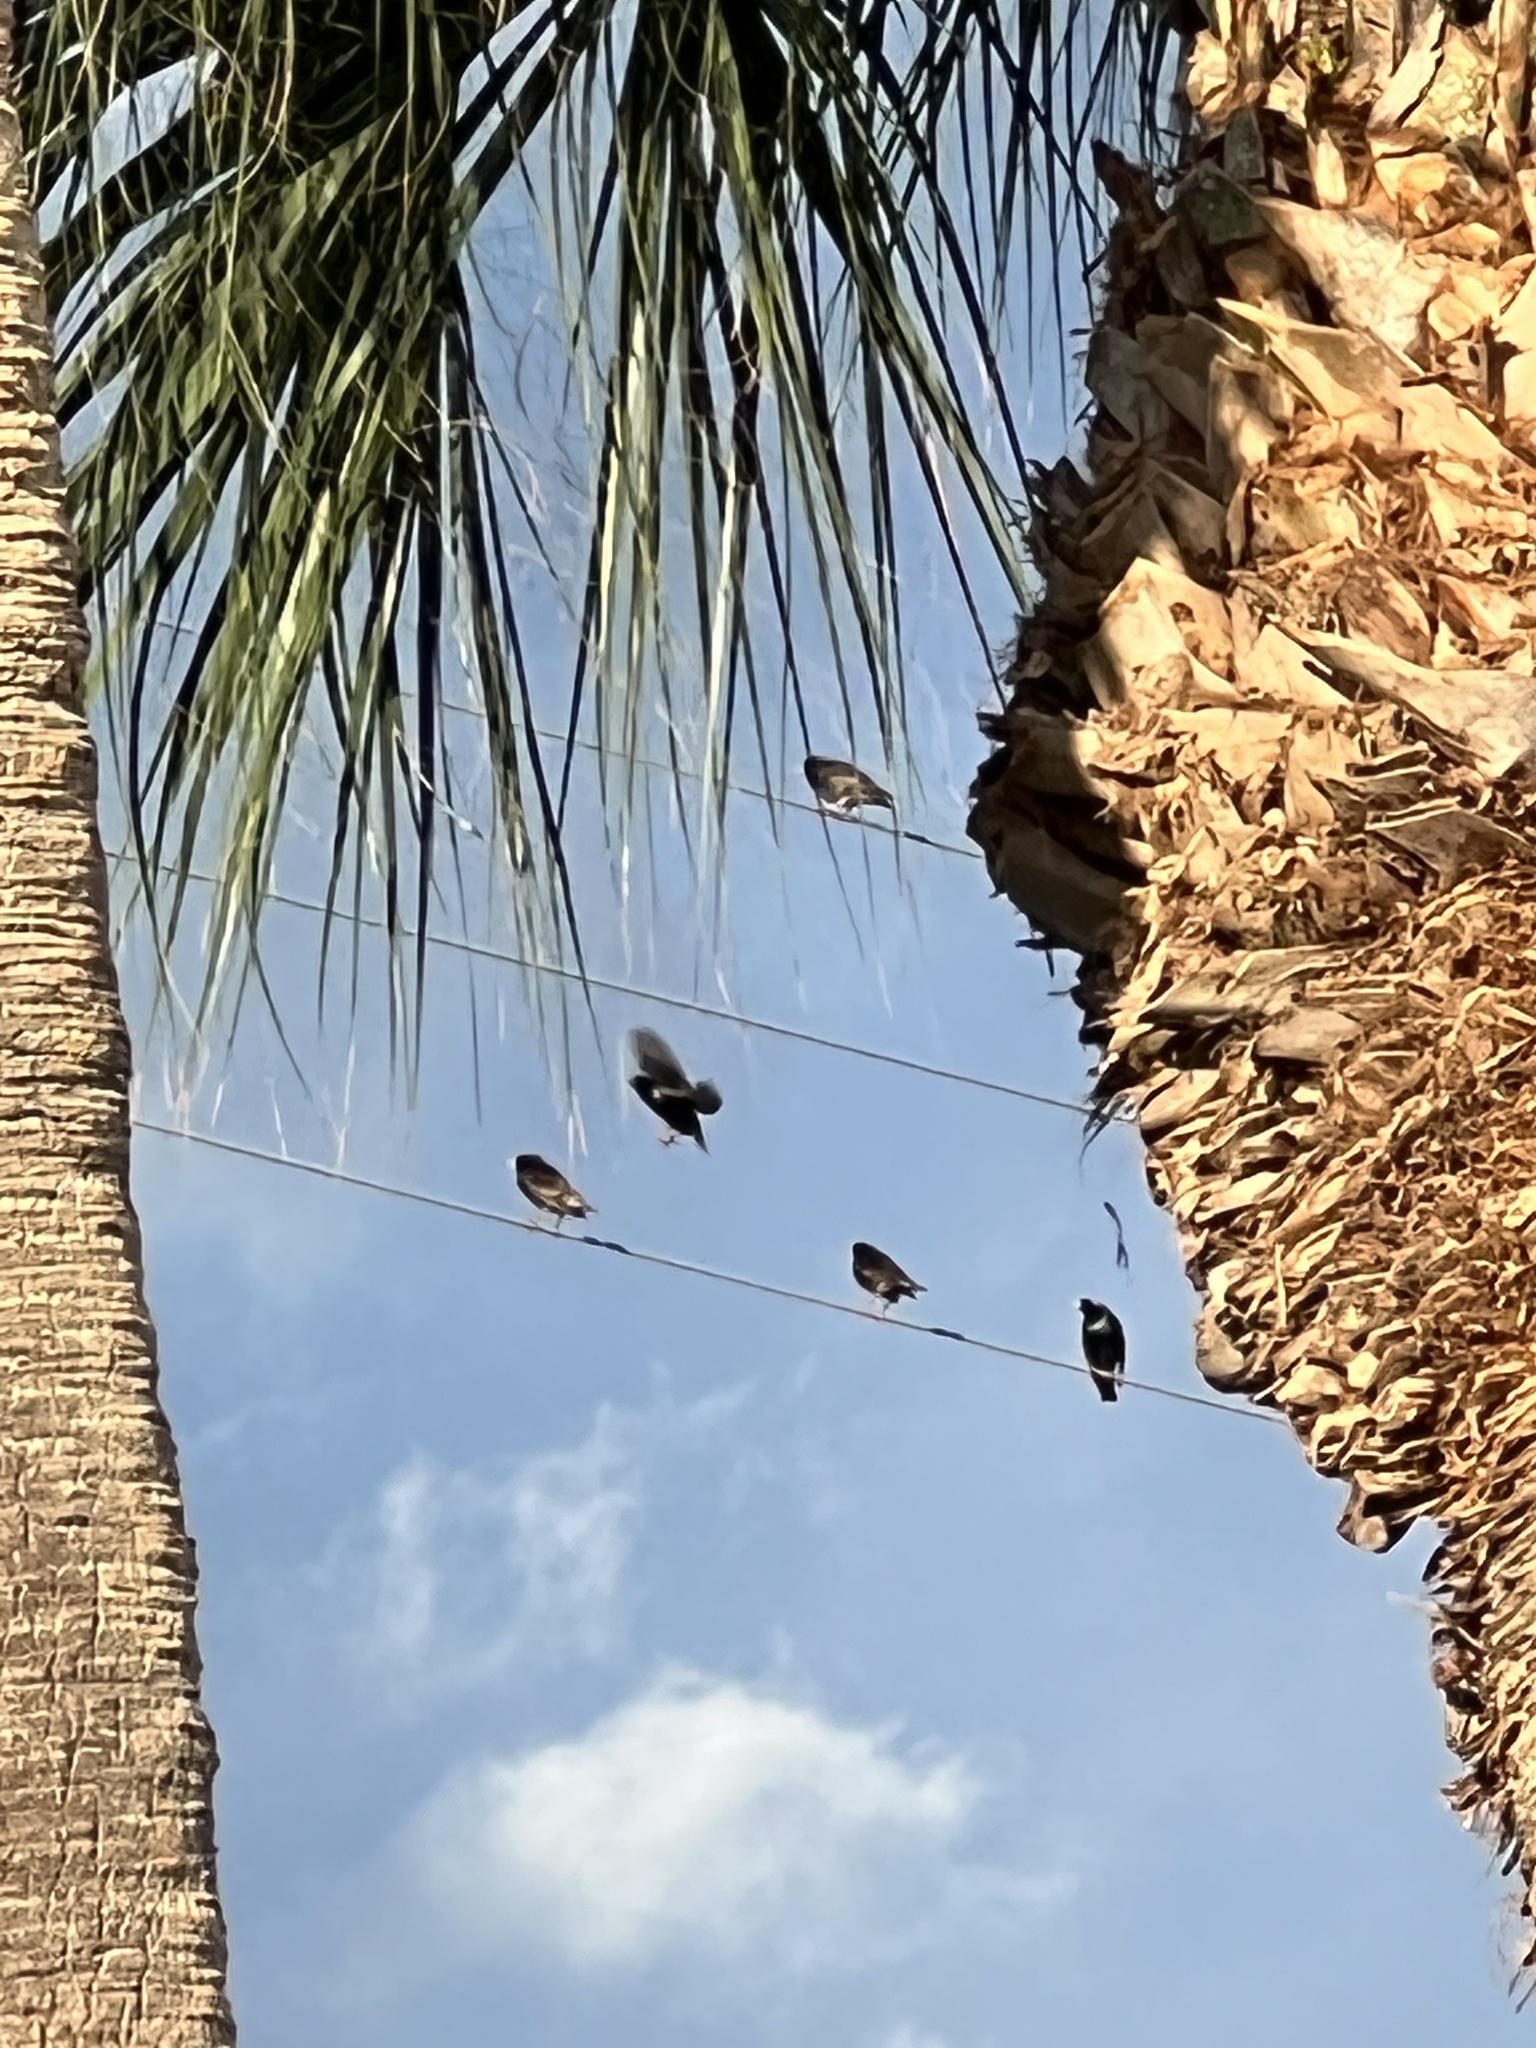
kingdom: Animalia
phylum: Chordata
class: Aves
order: Passeriformes
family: Sturnidae
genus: Sturnus
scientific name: Sturnus vulgaris
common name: Common starling
